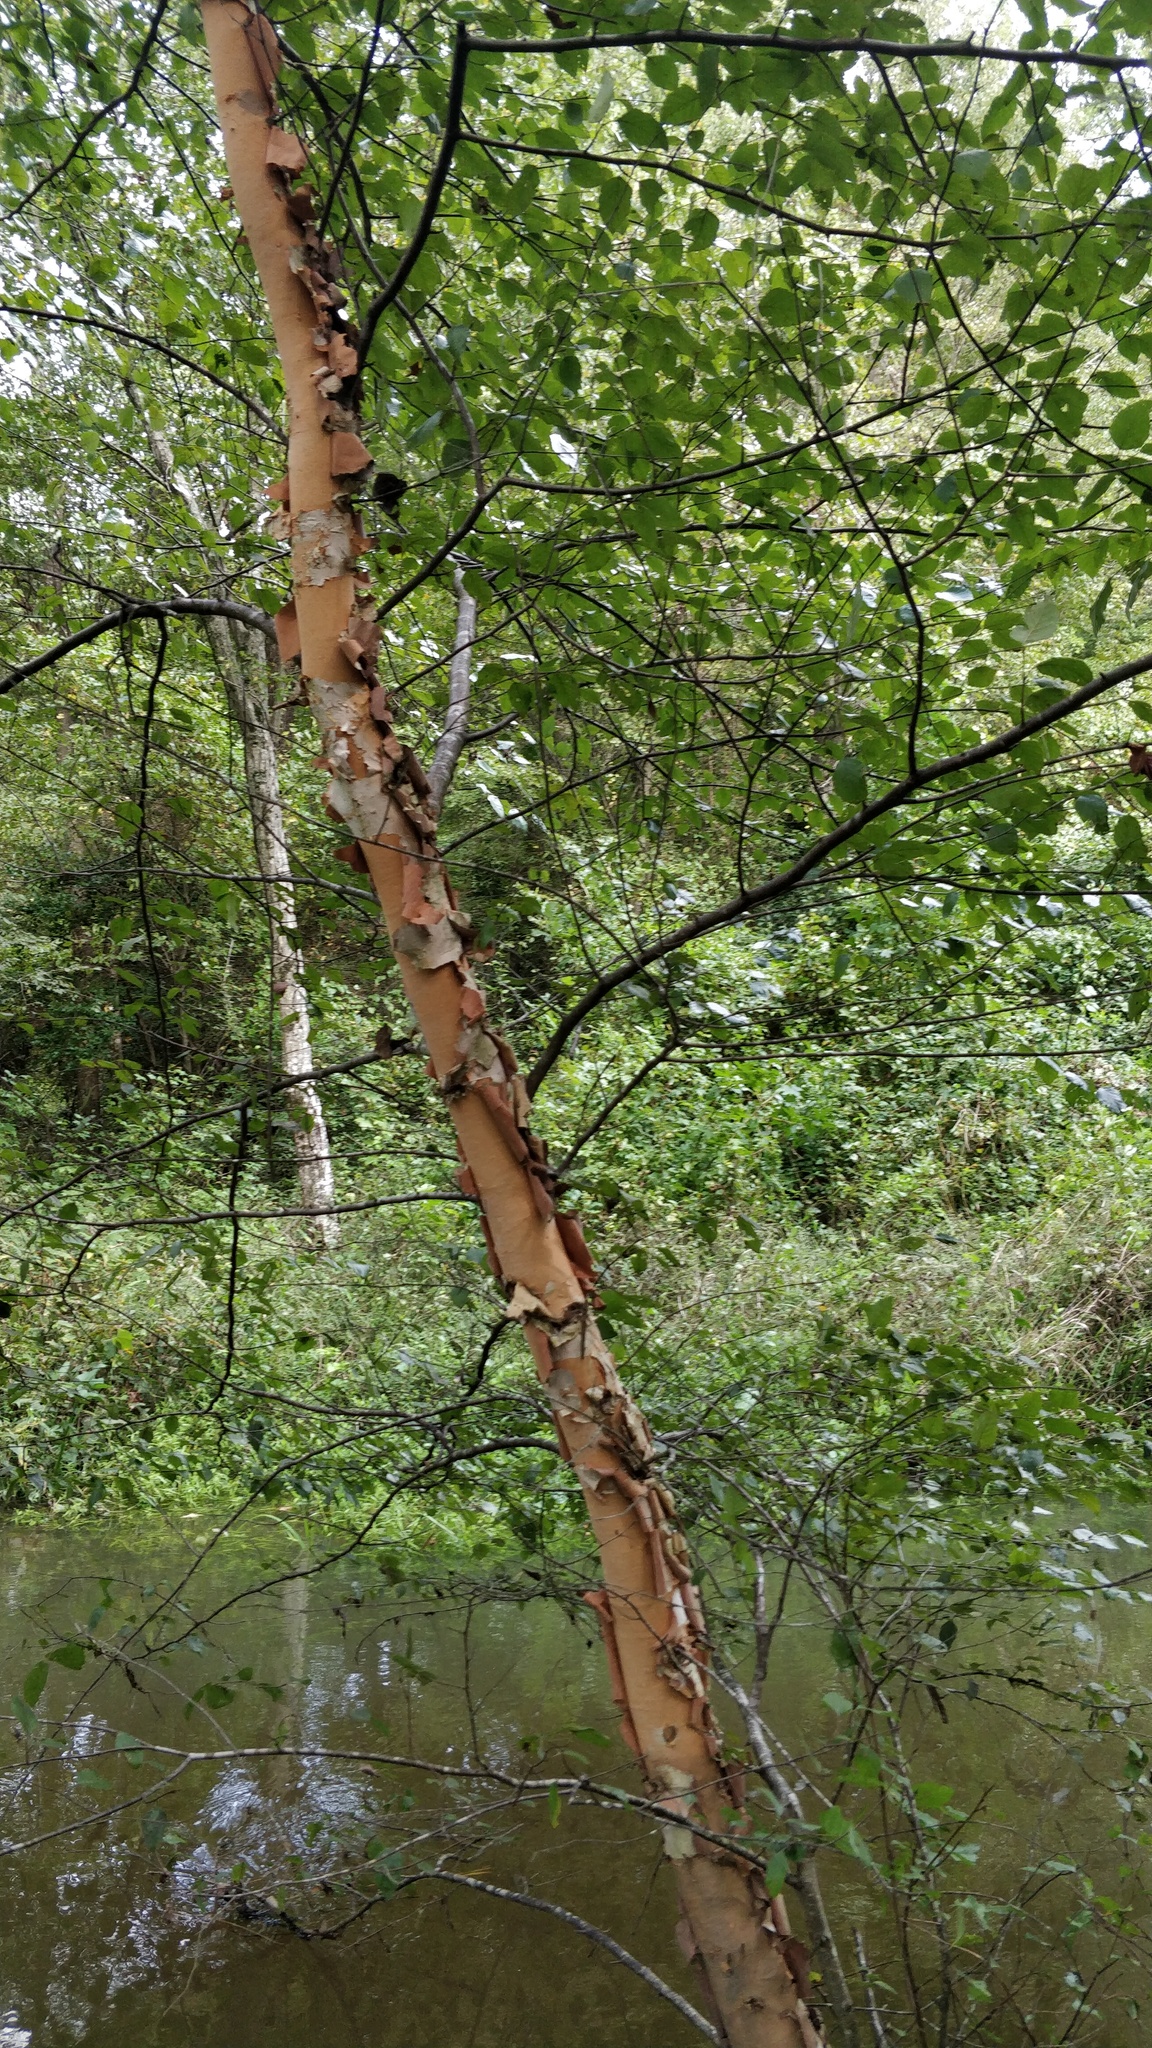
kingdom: Plantae
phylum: Tracheophyta
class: Magnoliopsida
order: Fagales
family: Betulaceae
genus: Betula
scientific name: Betula nigra
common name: Black birch
